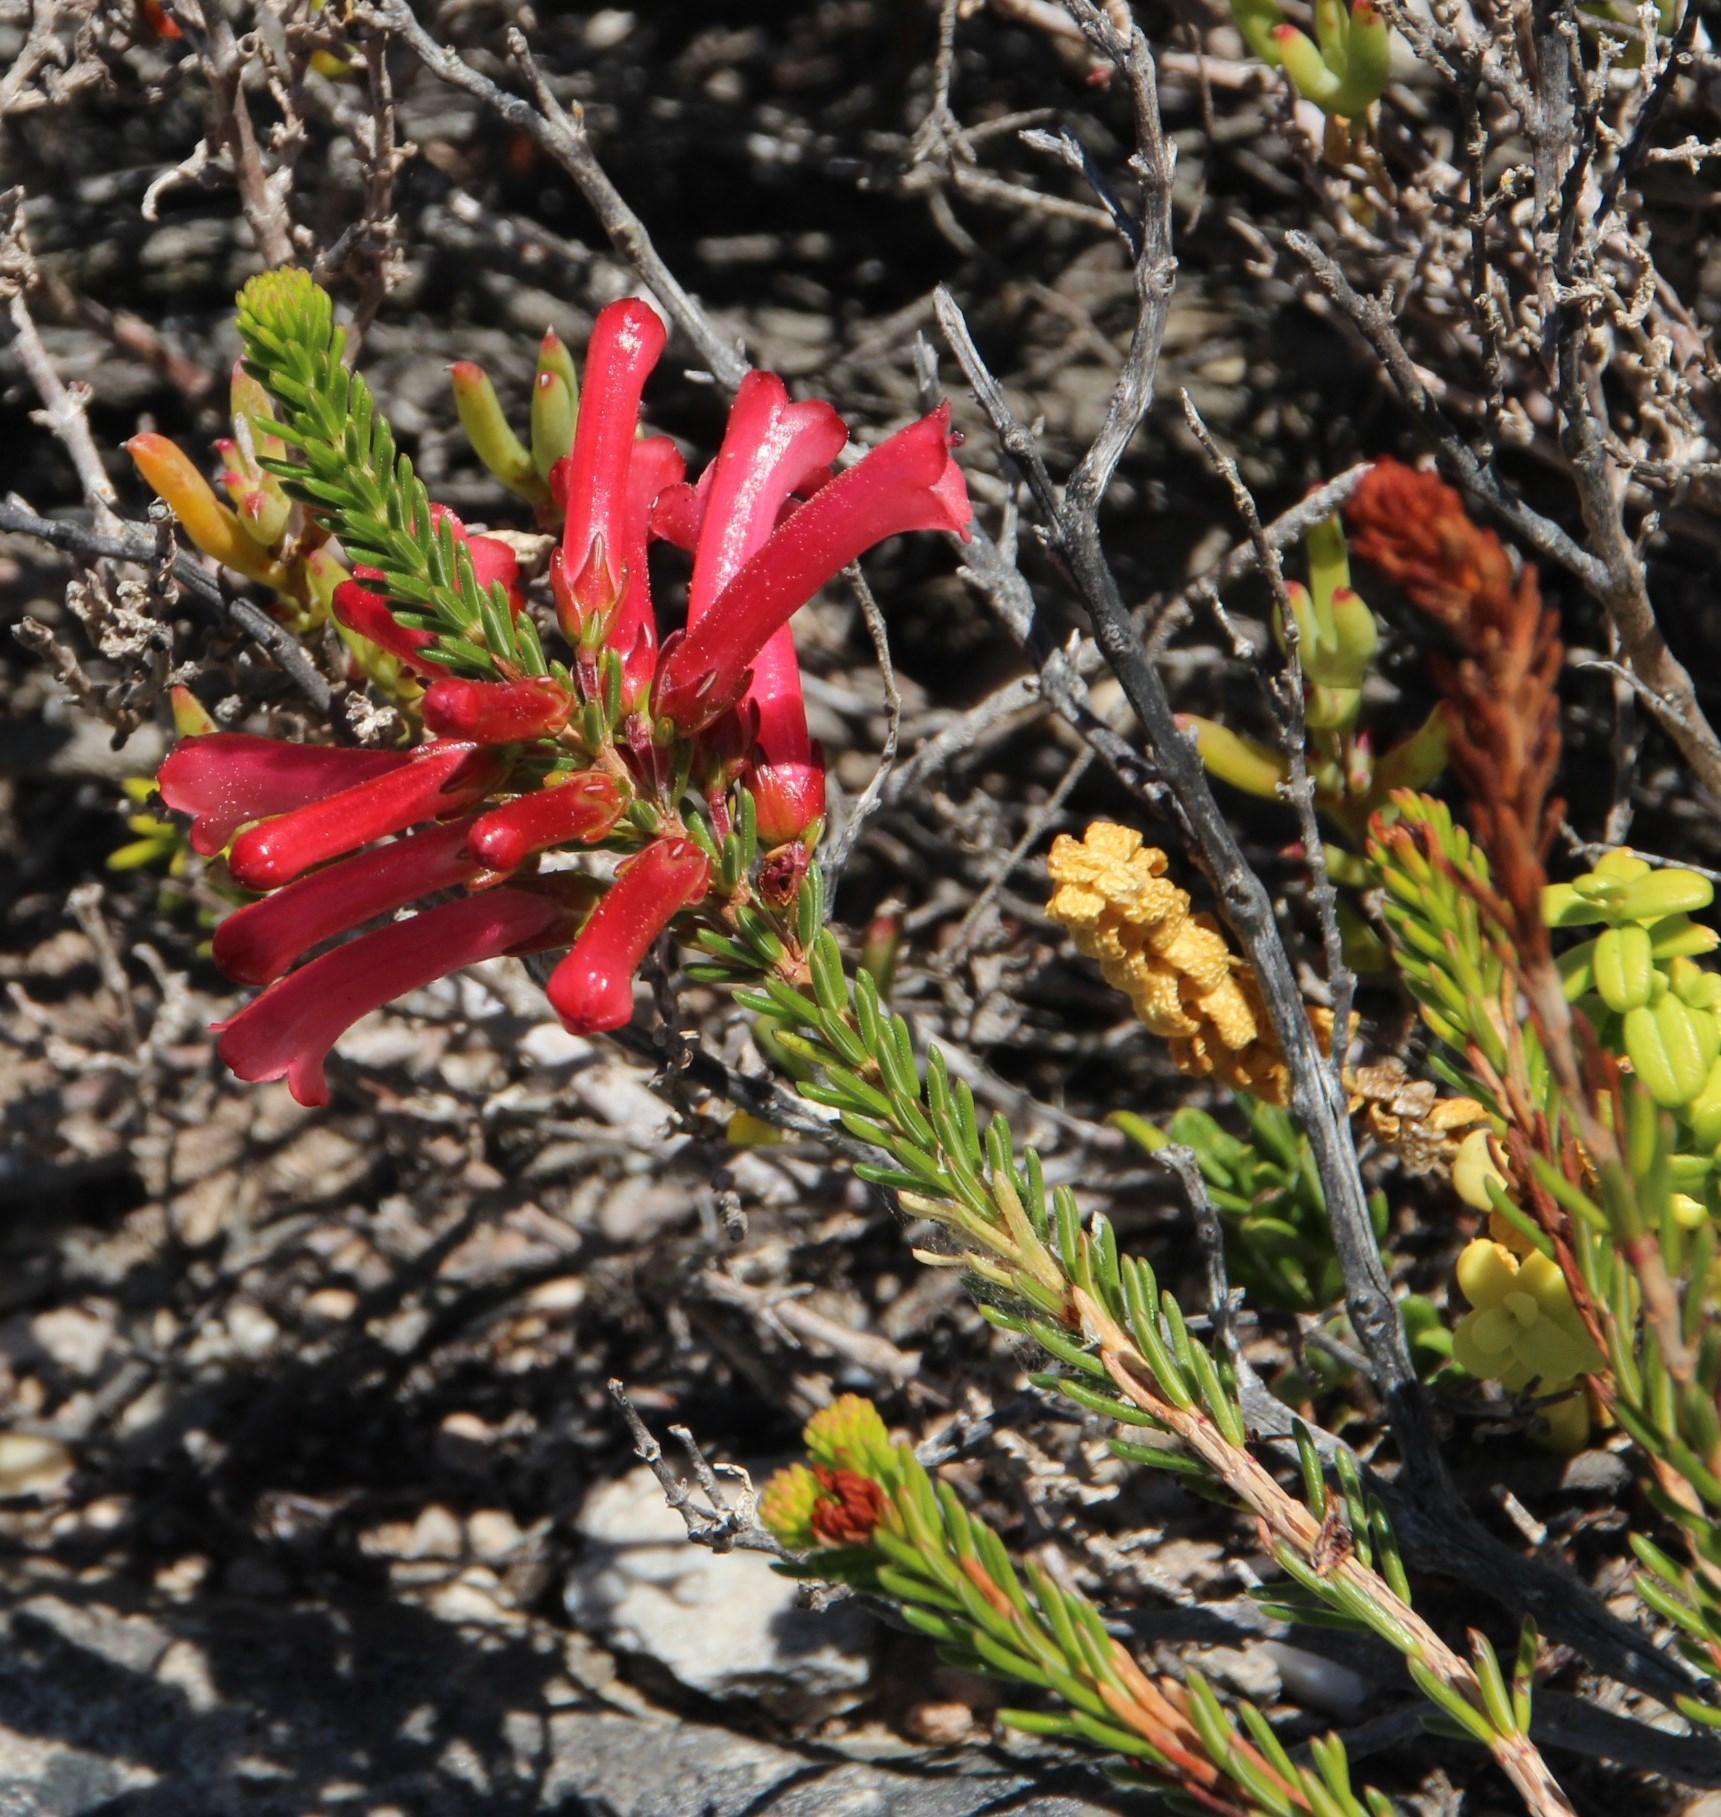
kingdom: Plantae
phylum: Tracheophyta
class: Magnoliopsida
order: Ericales
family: Ericaceae
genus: Erica
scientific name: Erica regia
